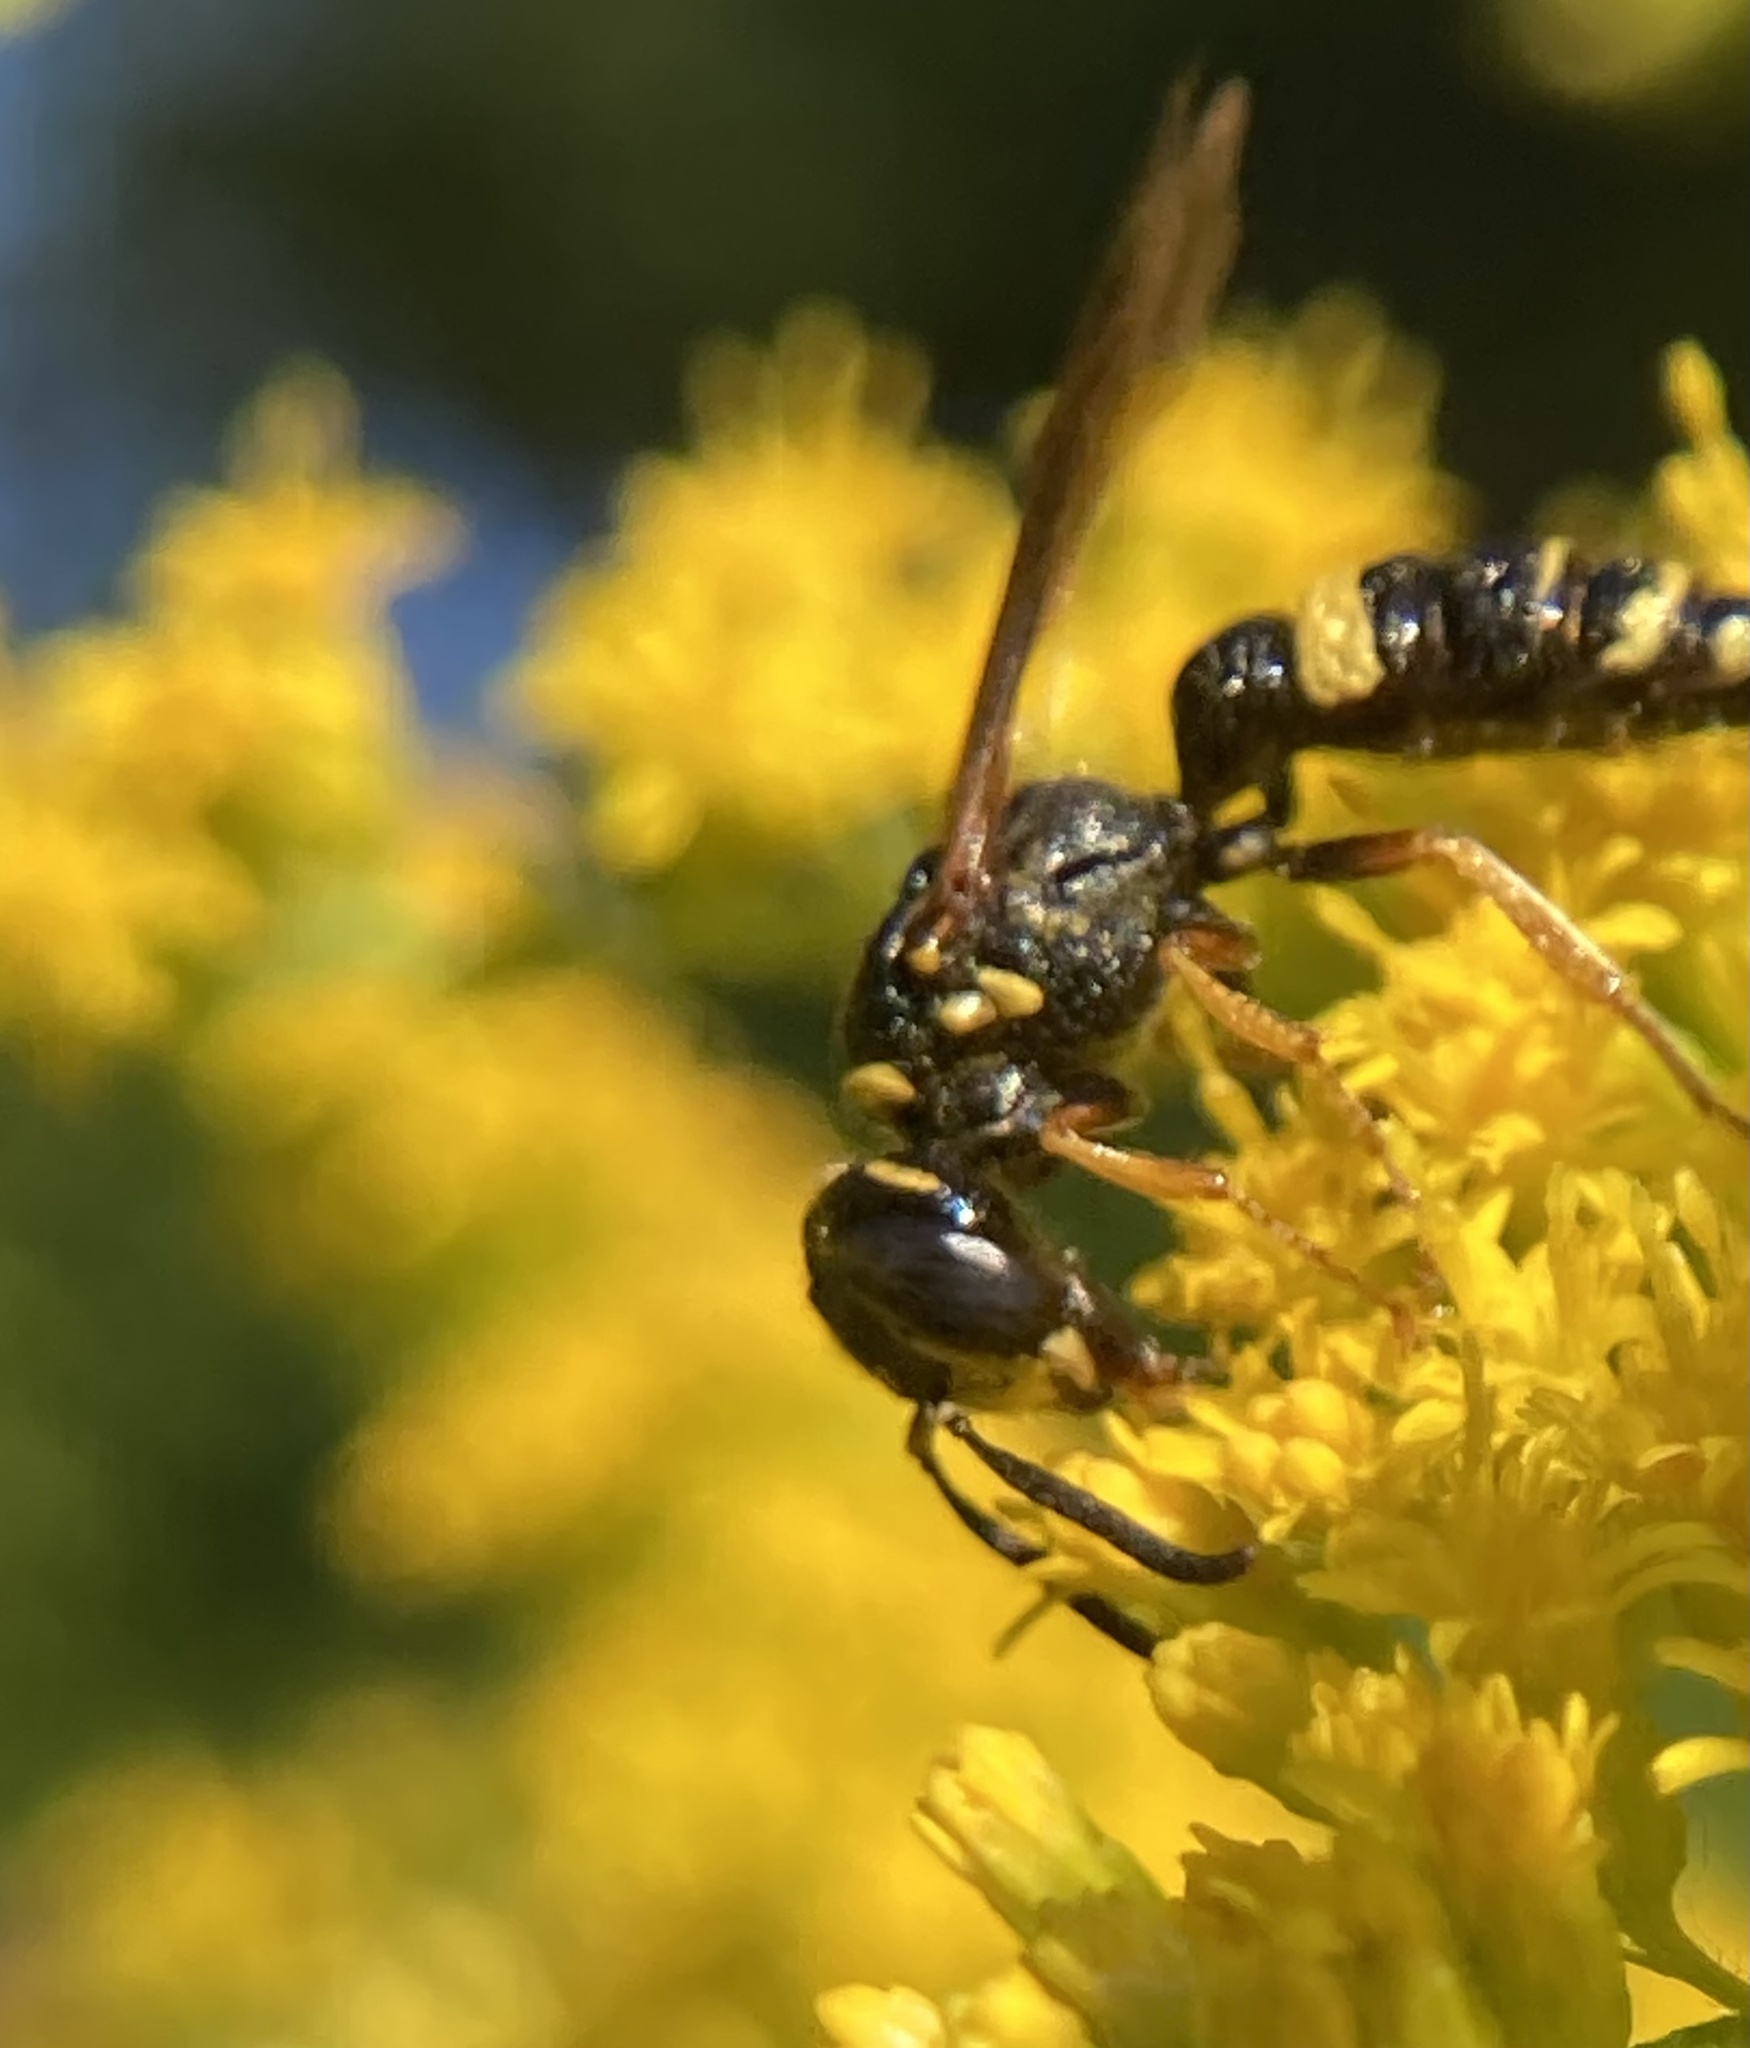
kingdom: Animalia
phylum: Arthropoda
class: Insecta
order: Hymenoptera
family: Crabronidae
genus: Philanthus
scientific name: Philanthus gibbosus
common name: Humped beewolf
